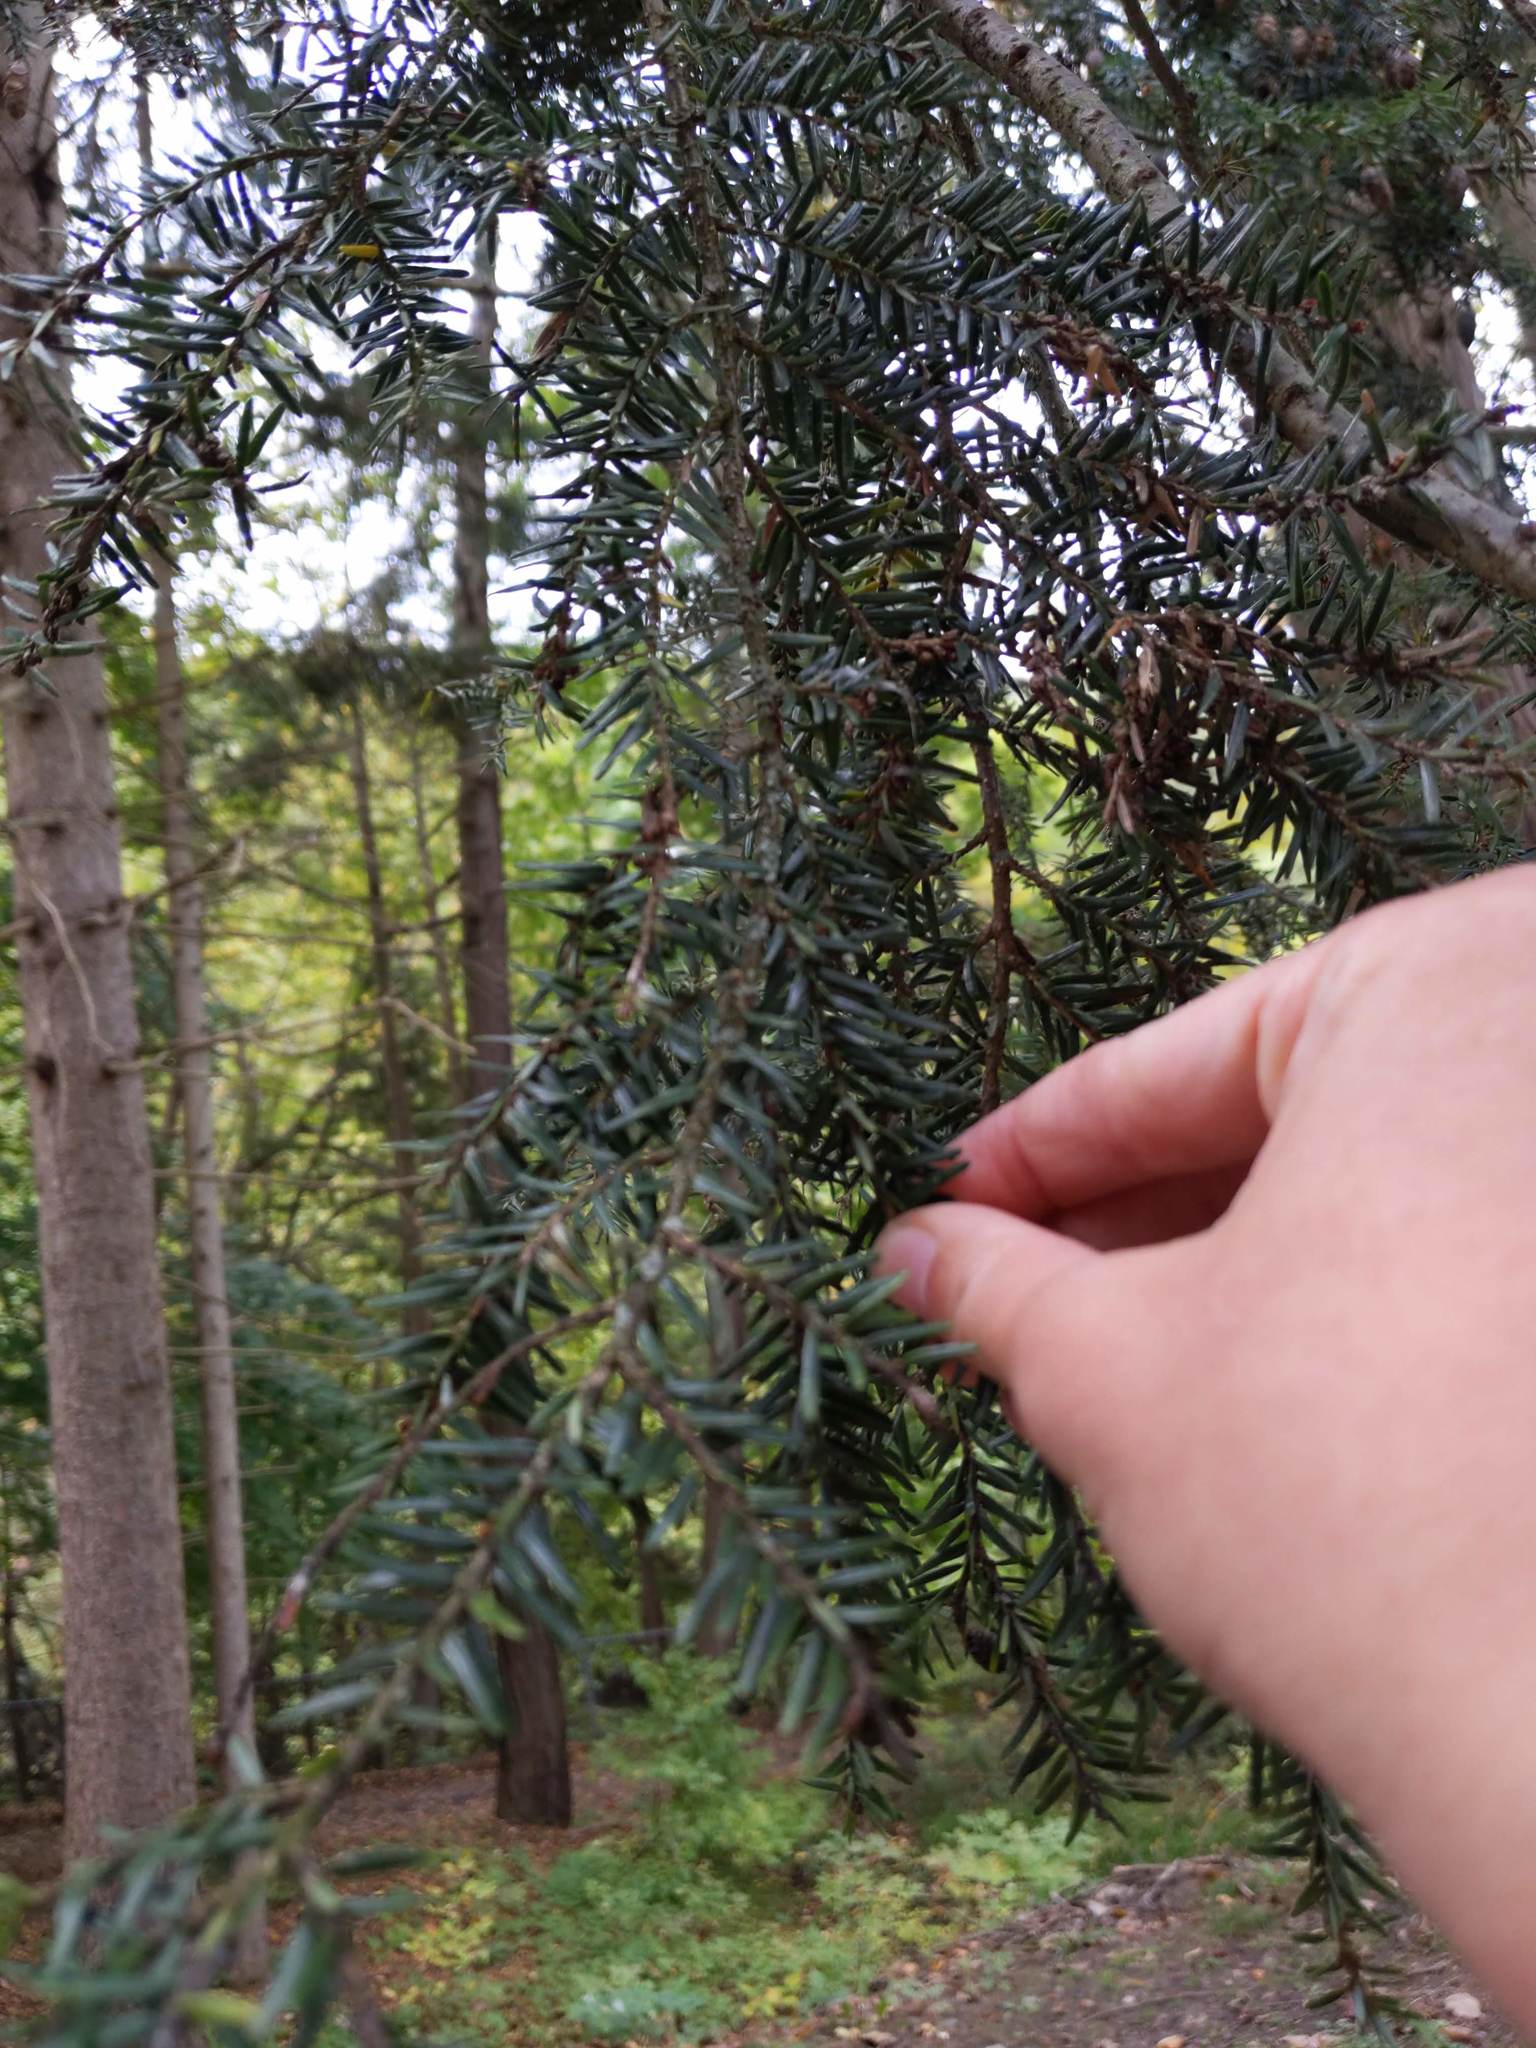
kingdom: Plantae
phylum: Tracheophyta
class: Pinopsida
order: Pinales
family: Pinaceae
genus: Tsuga
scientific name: Tsuga canadensis
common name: Eastern hemlock
